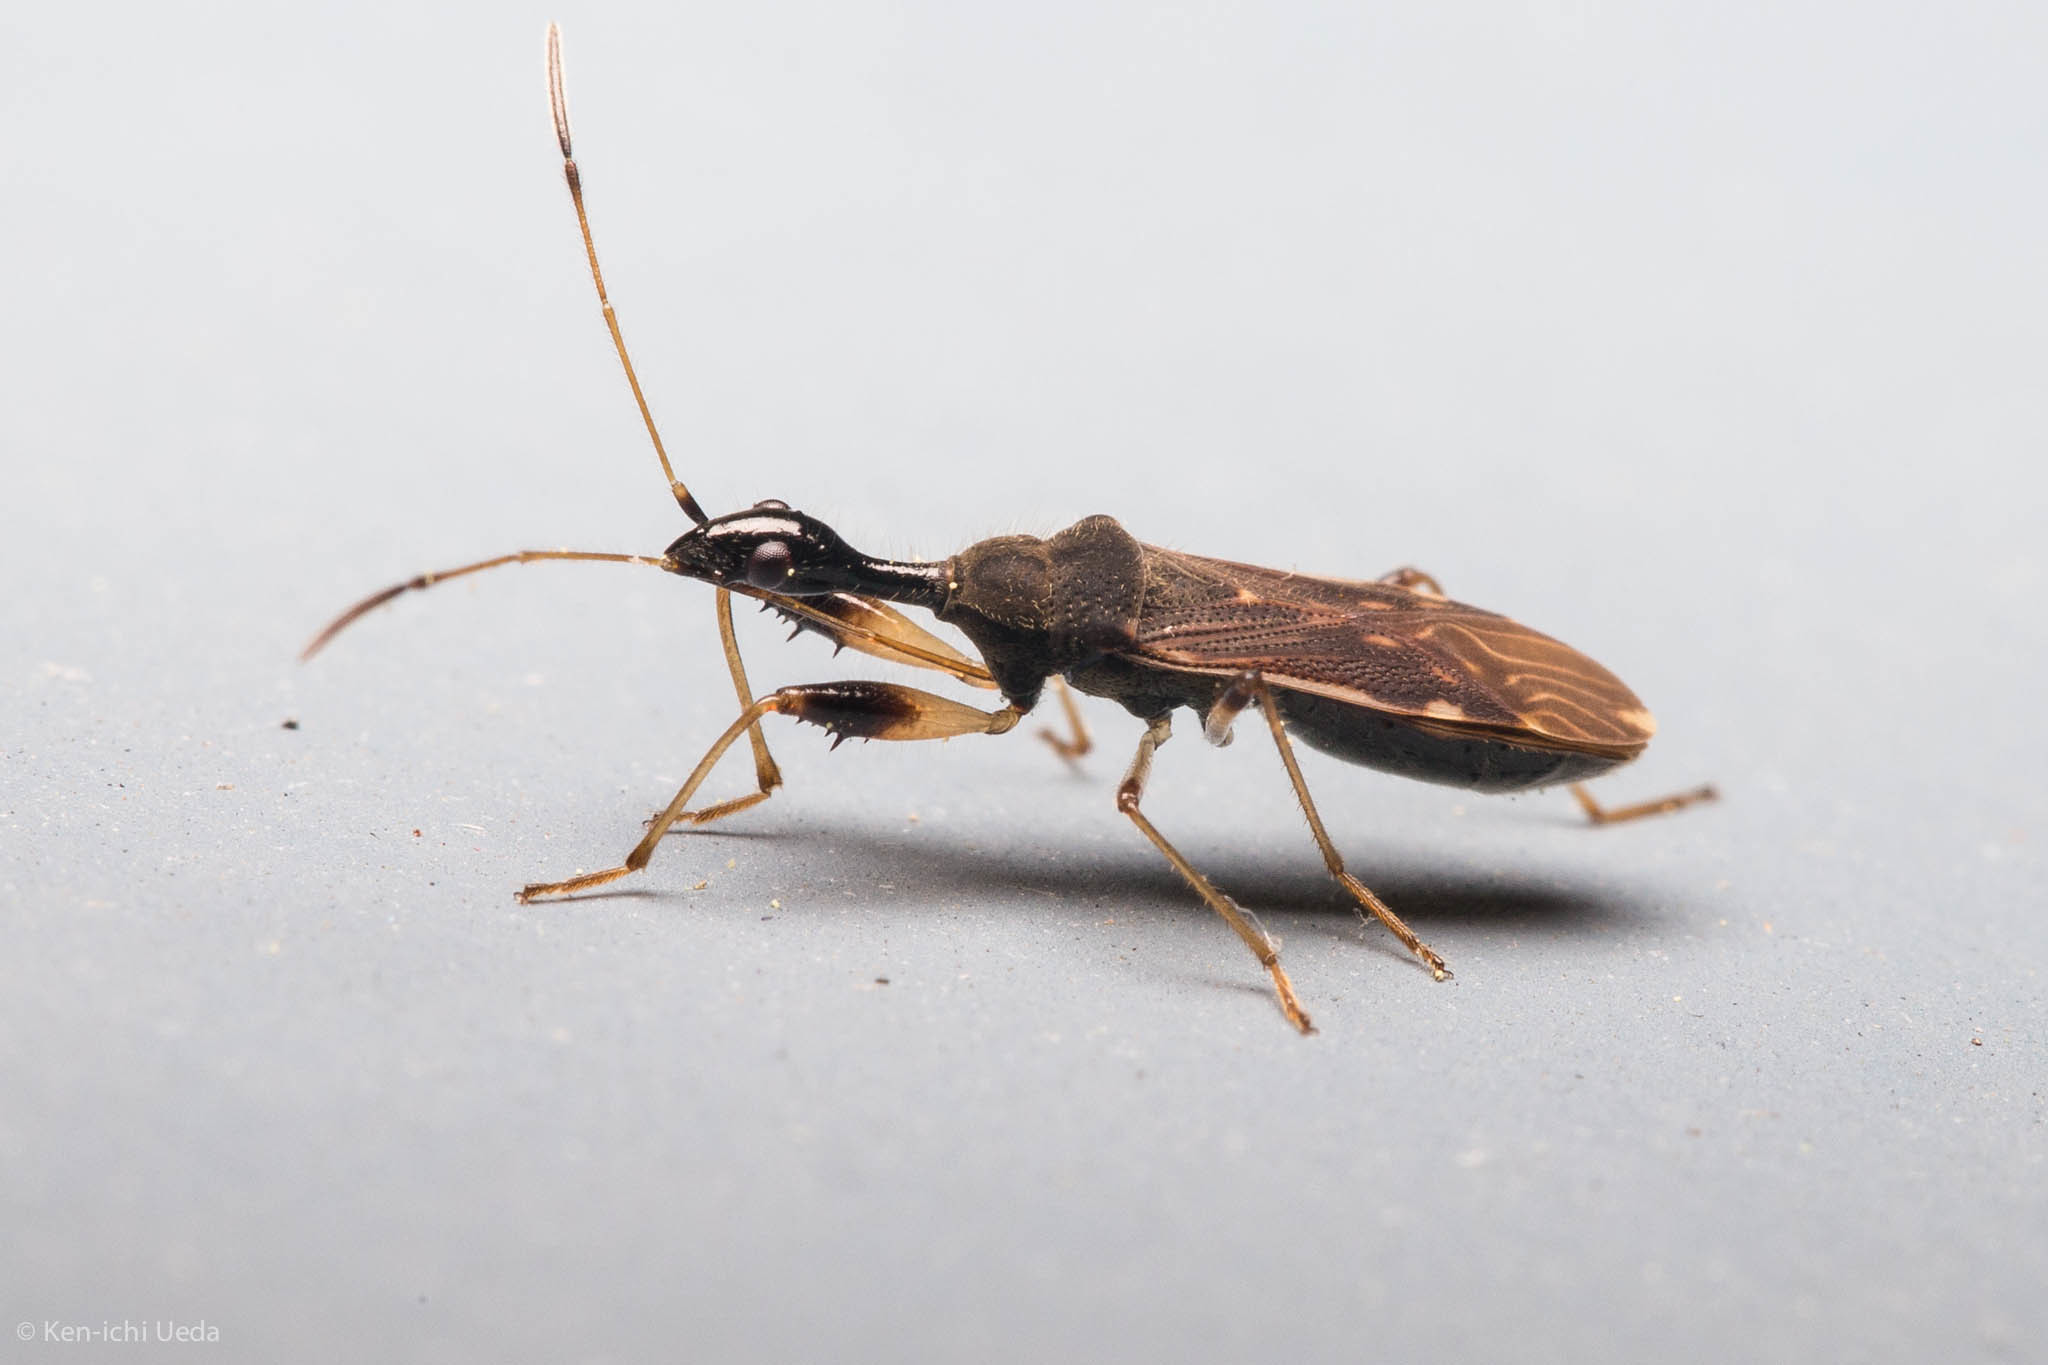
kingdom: Animalia
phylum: Arthropoda
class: Insecta
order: Hemiptera
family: Rhyparochromidae
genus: Myodocha
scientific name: Myodocha serripes
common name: Long-necked seed bug
